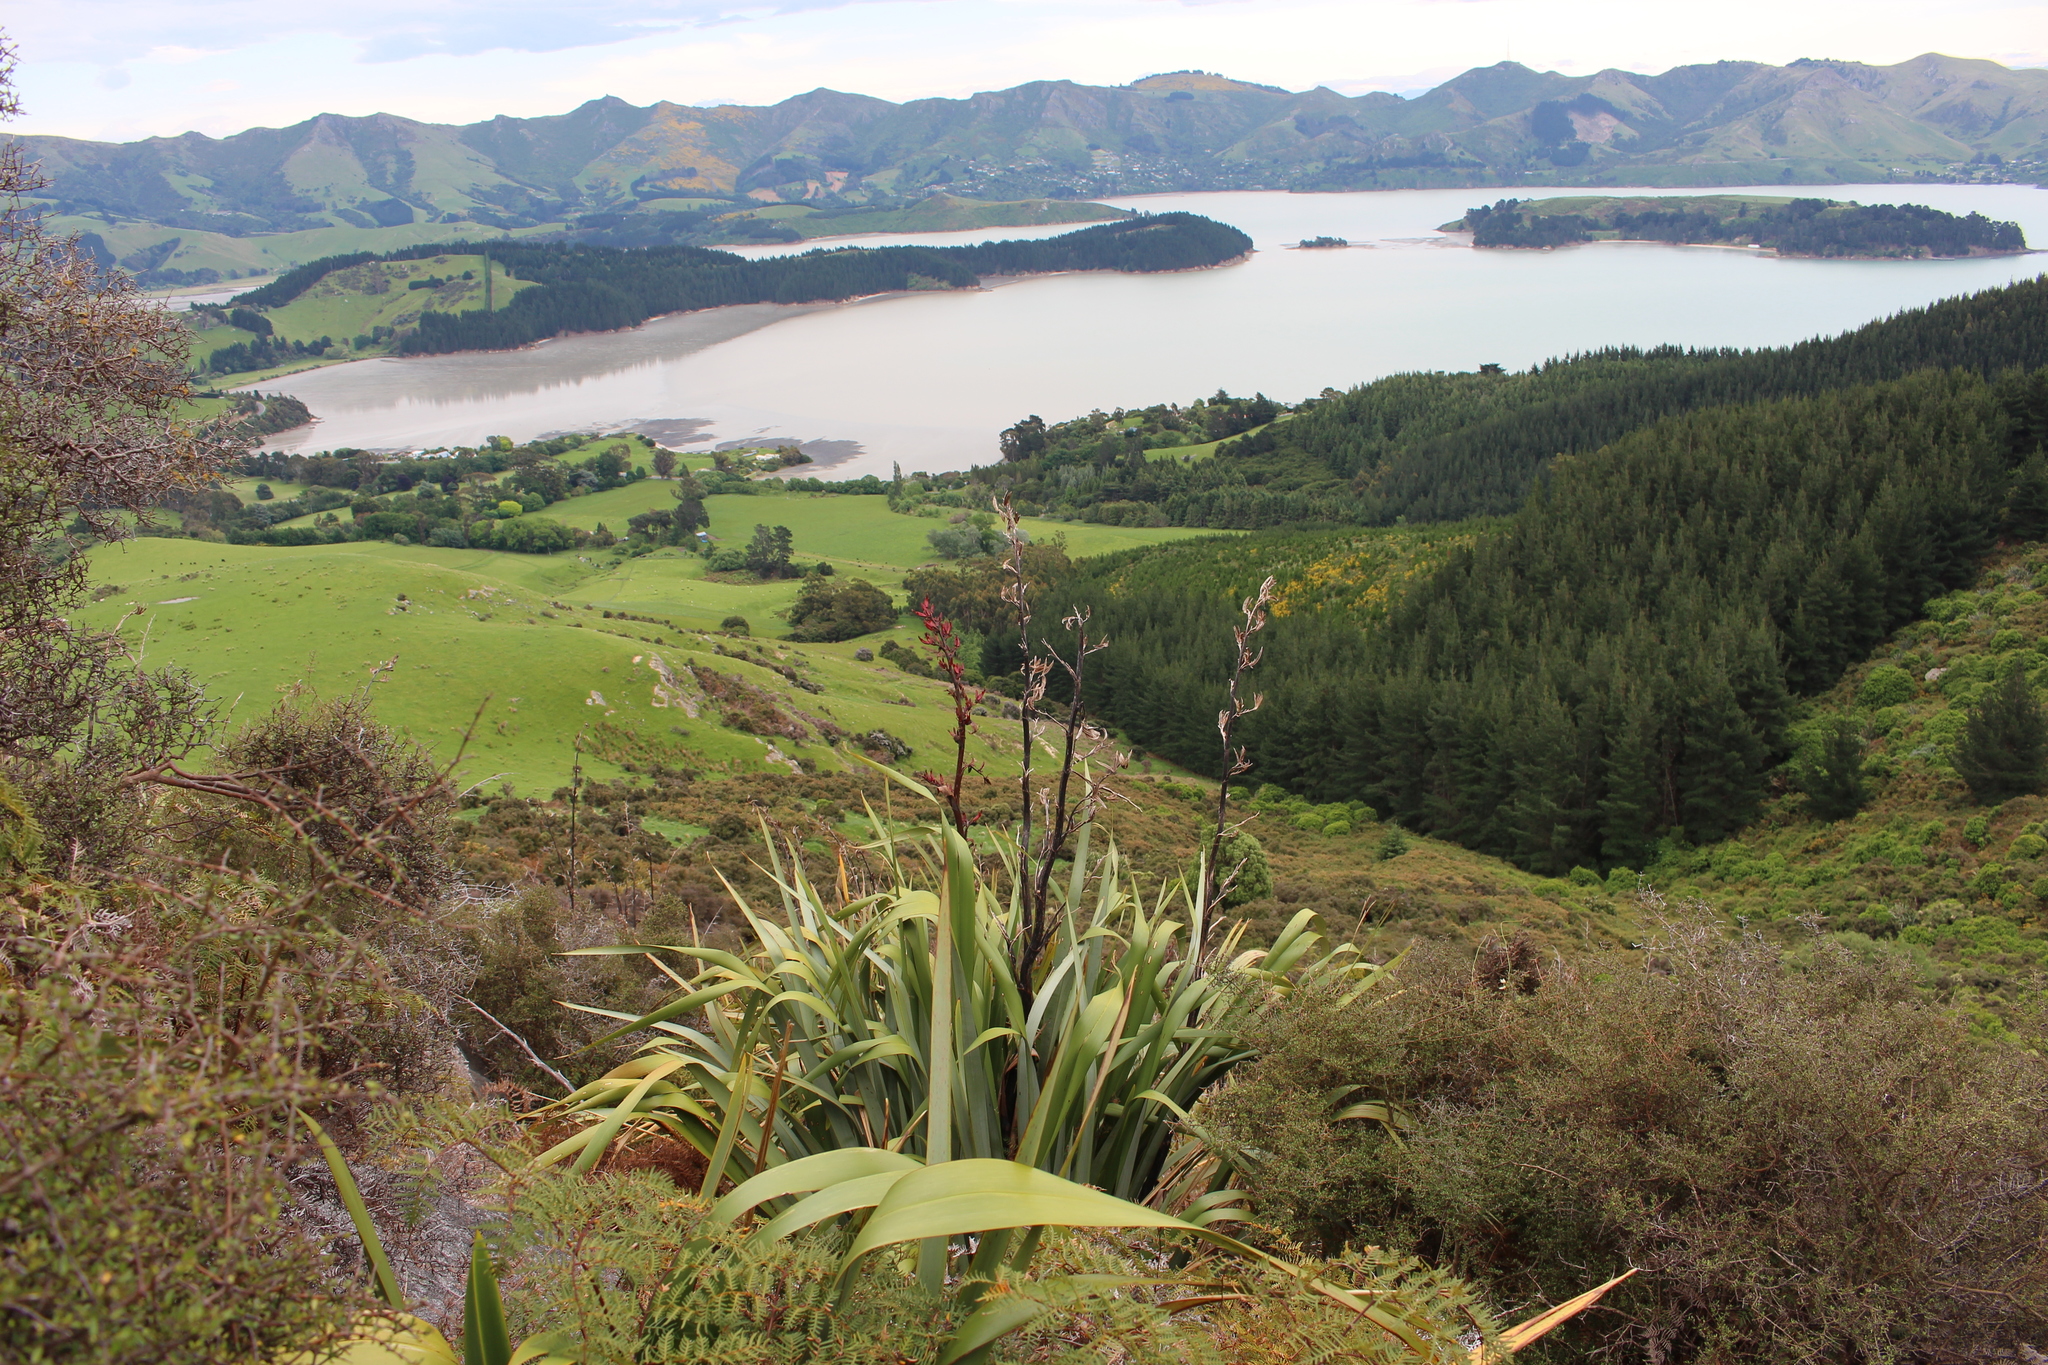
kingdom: Plantae
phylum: Tracheophyta
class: Liliopsida
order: Asparagales
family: Asphodelaceae
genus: Phormium
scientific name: Phormium tenax
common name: New zealand flax
